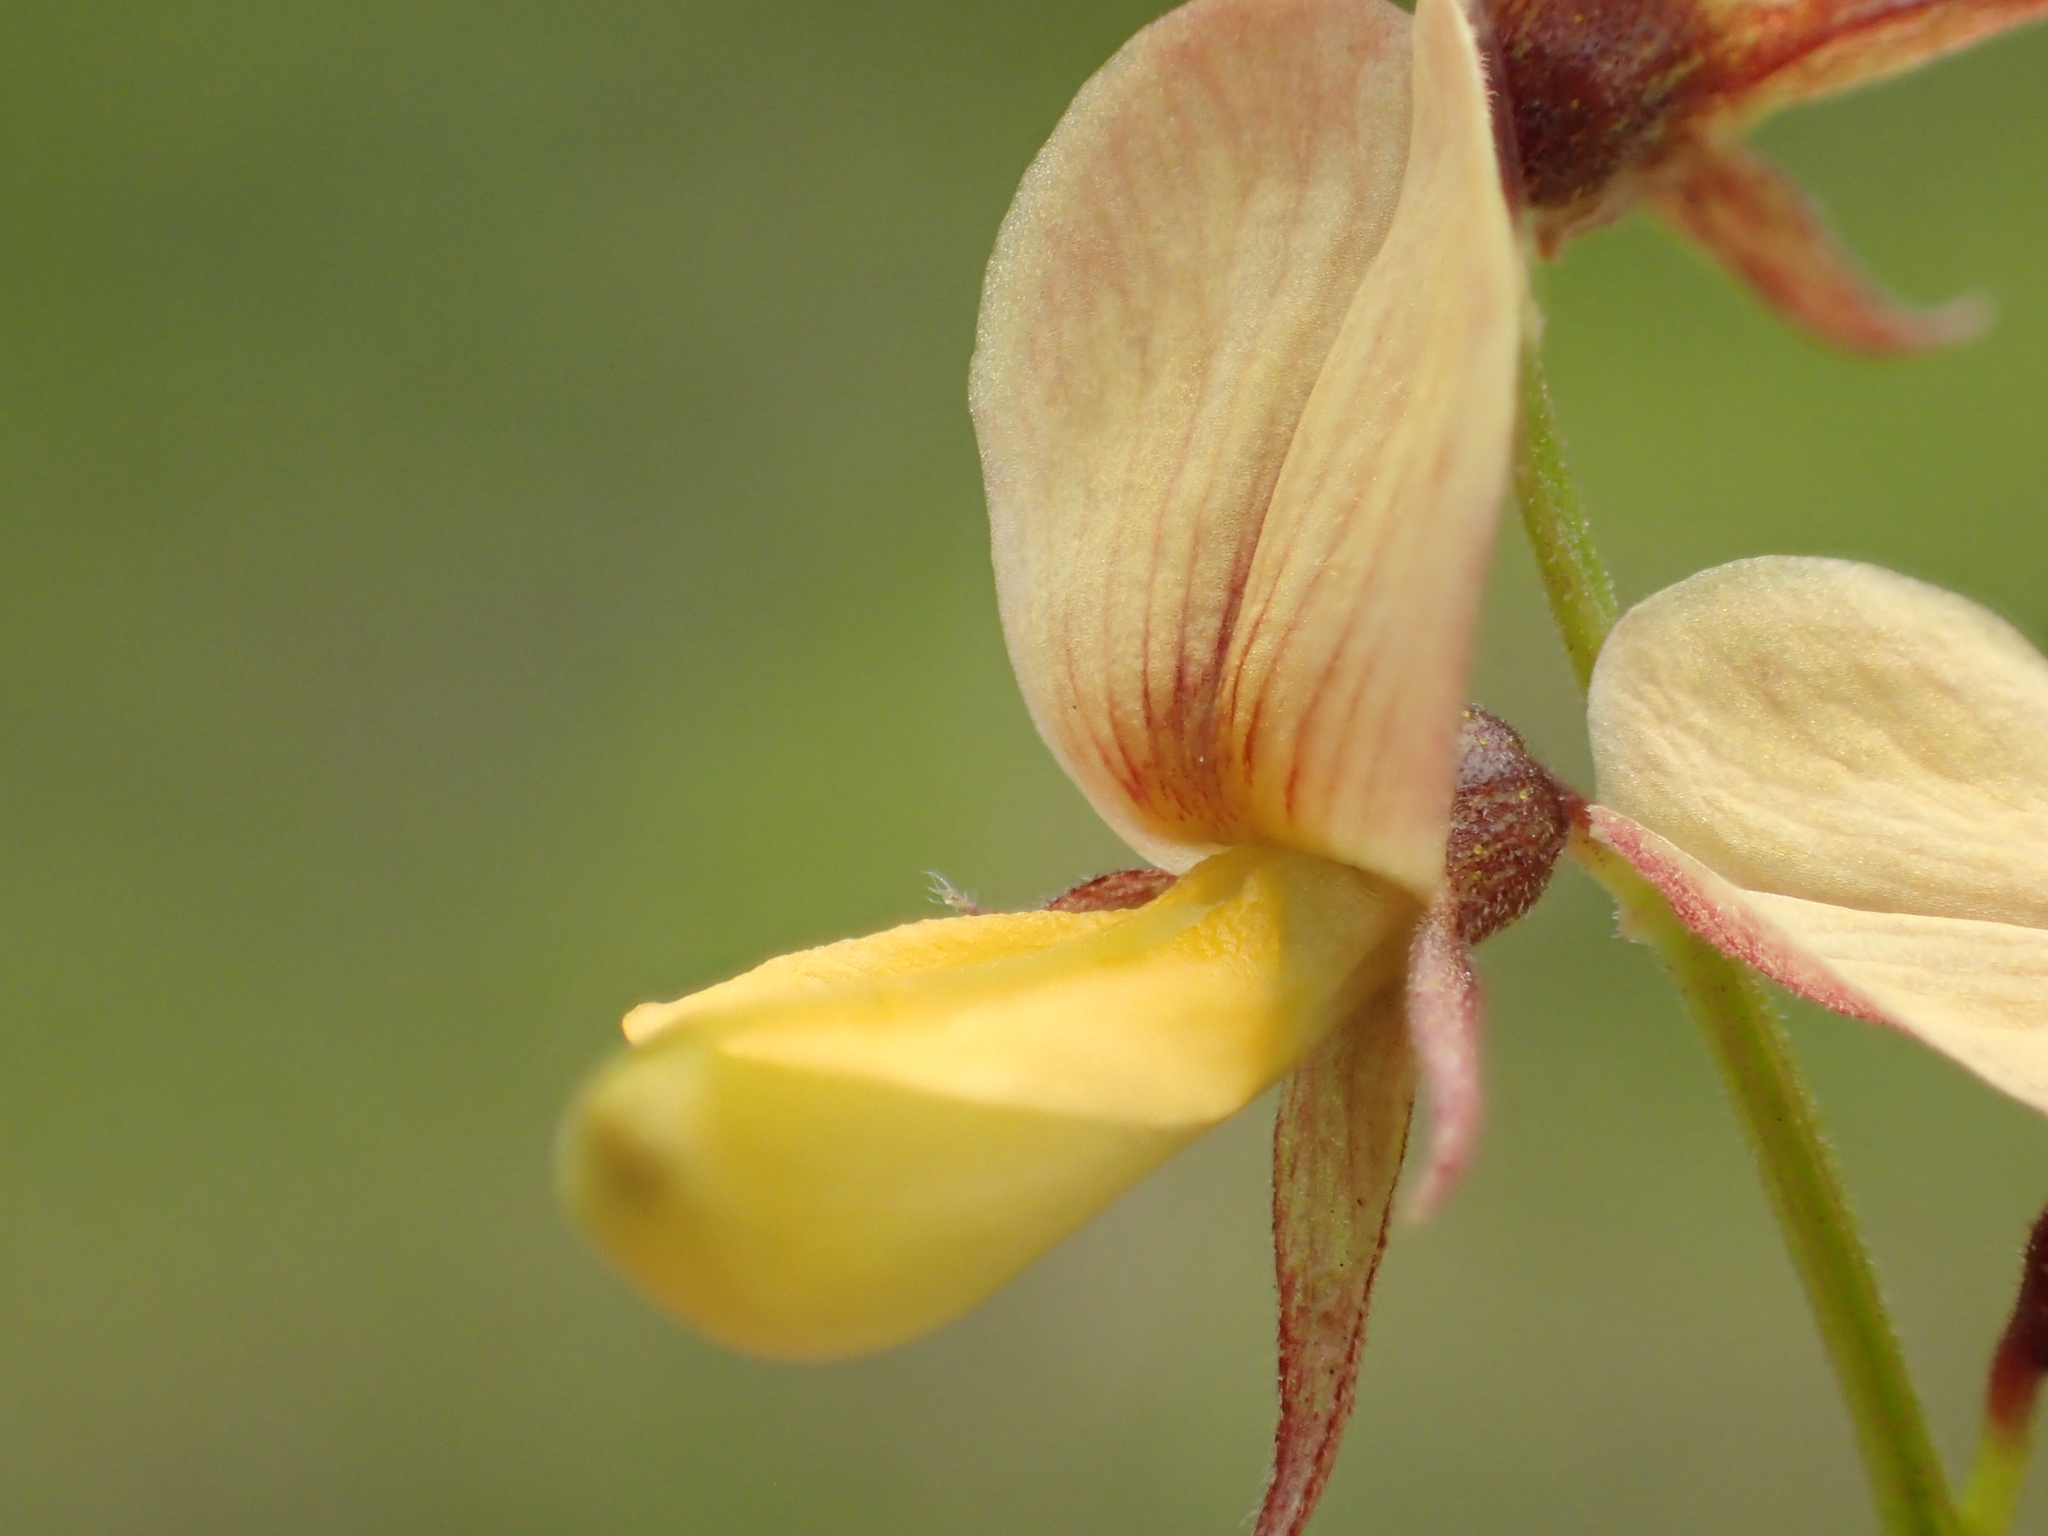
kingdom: Plantae
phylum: Tracheophyta
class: Magnoliopsida
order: Fabales
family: Fabaceae
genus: Rhynchosia
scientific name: Rhynchosia minima
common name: Least snoutbean
